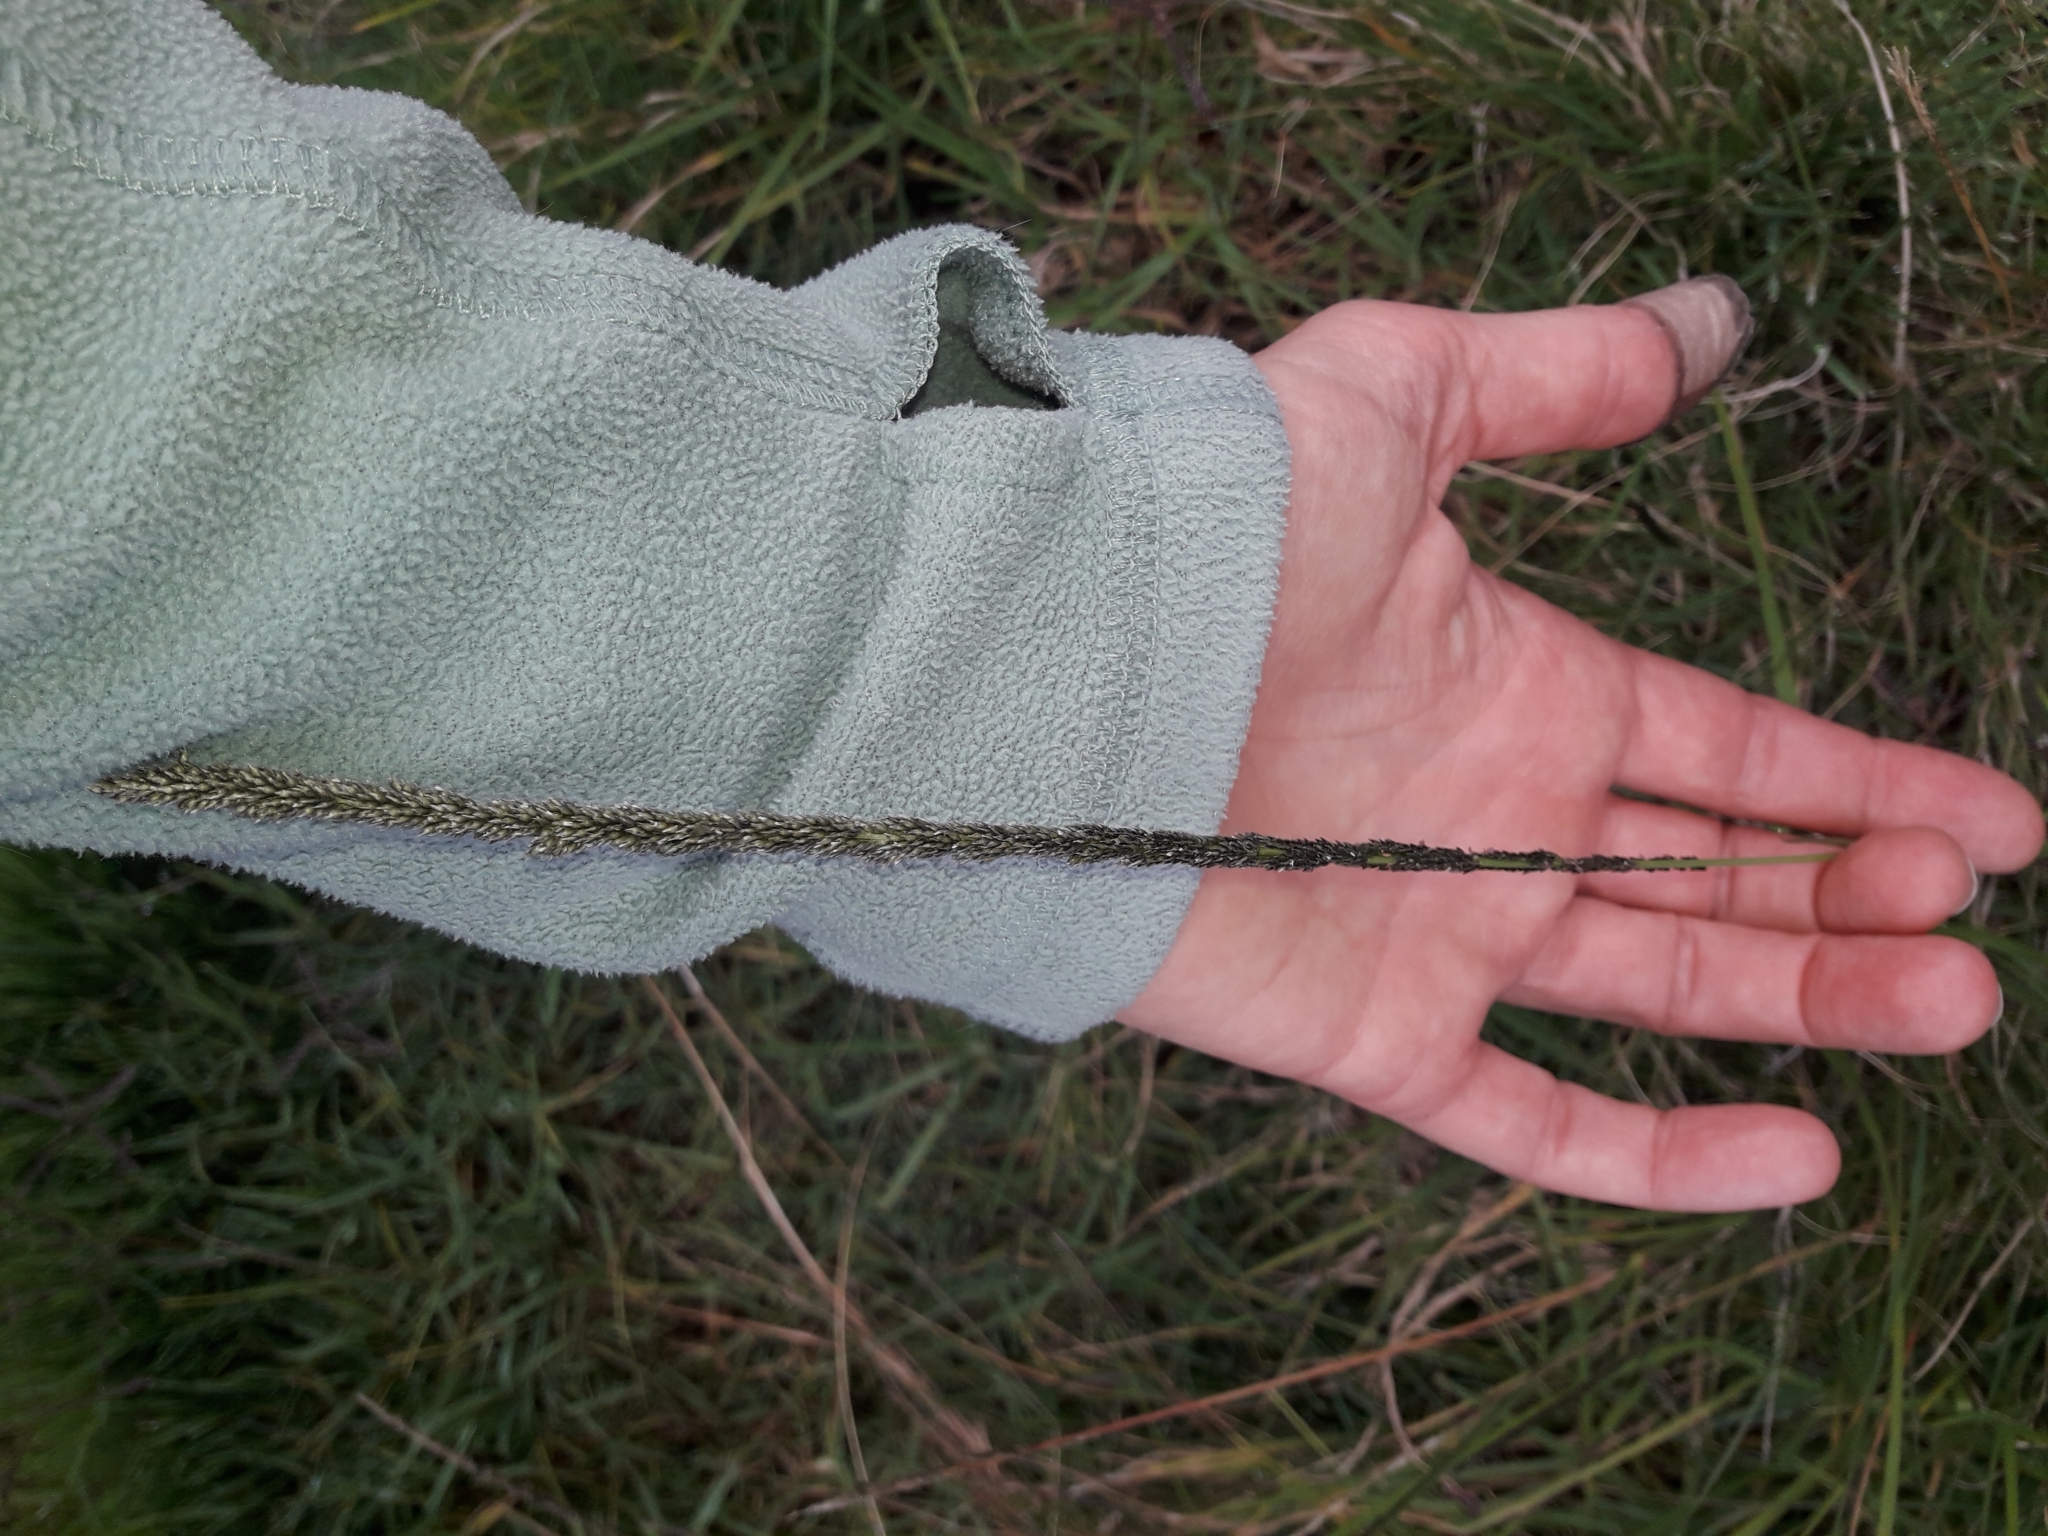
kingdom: Plantae
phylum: Tracheophyta
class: Liliopsida
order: Poales
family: Poaceae
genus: Sporobolus
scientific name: Sporobolus africanus
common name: African dropseed
